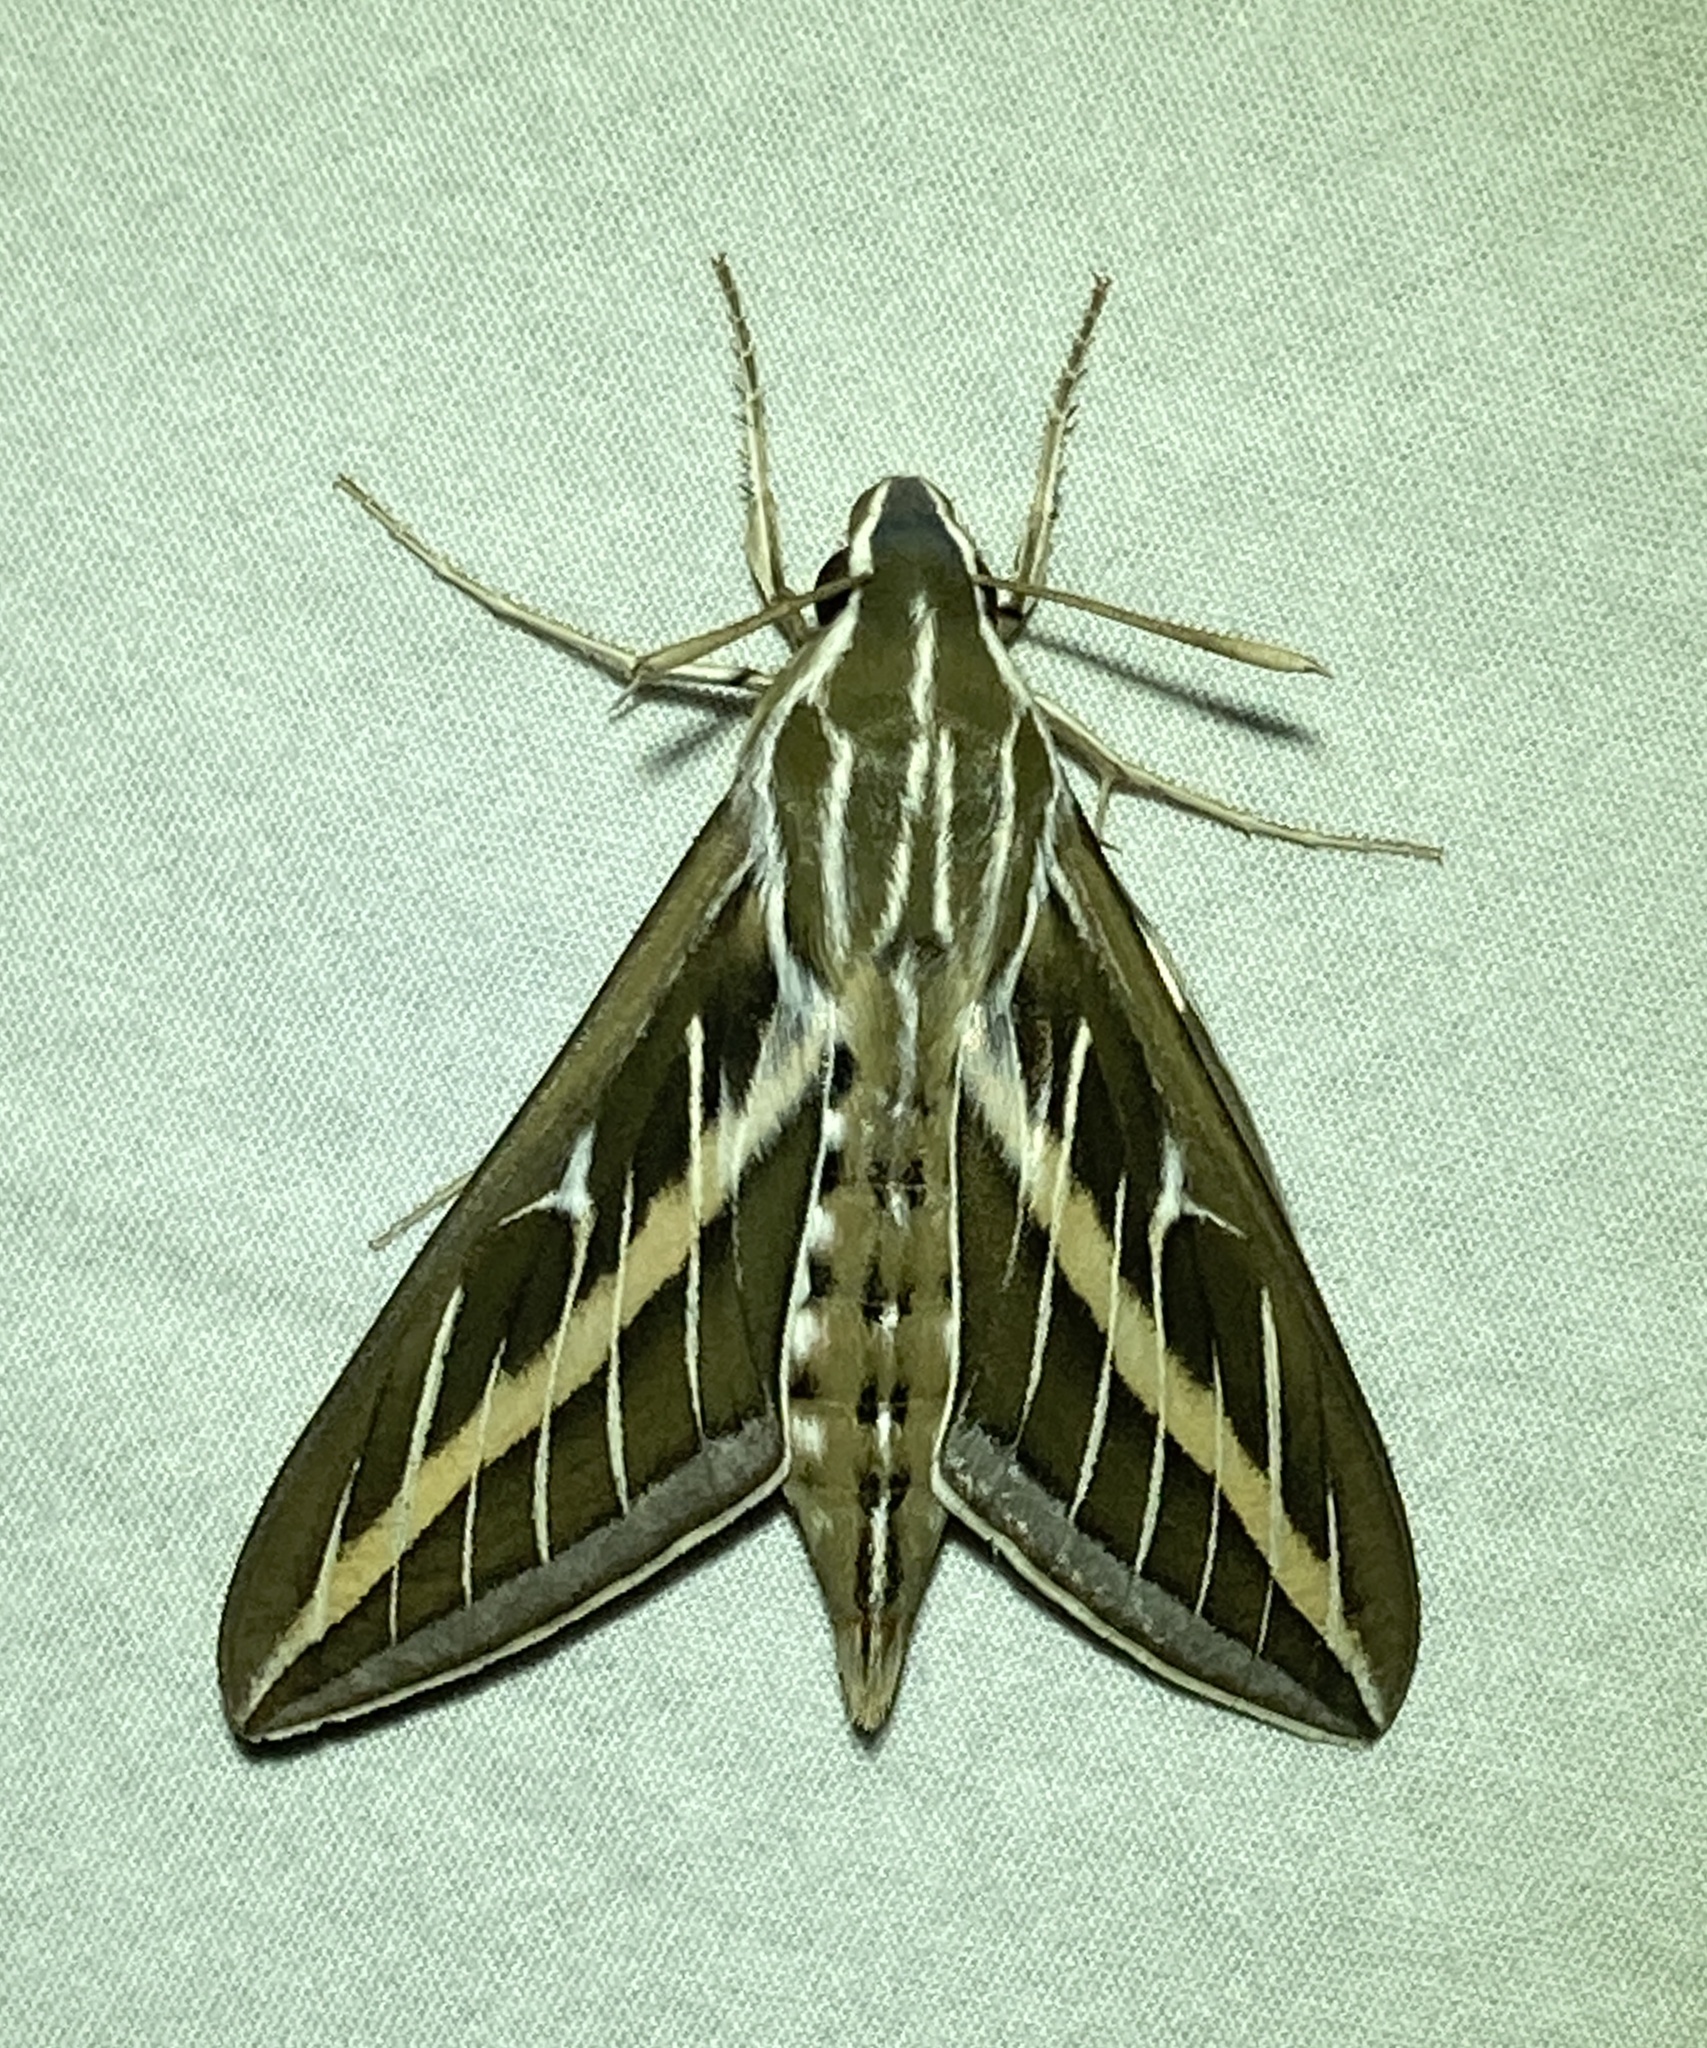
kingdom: Animalia
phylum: Arthropoda
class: Insecta
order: Lepidoptera
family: Sphingidae
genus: Hyles
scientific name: Hyles lineata
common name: White-lined sphinx
